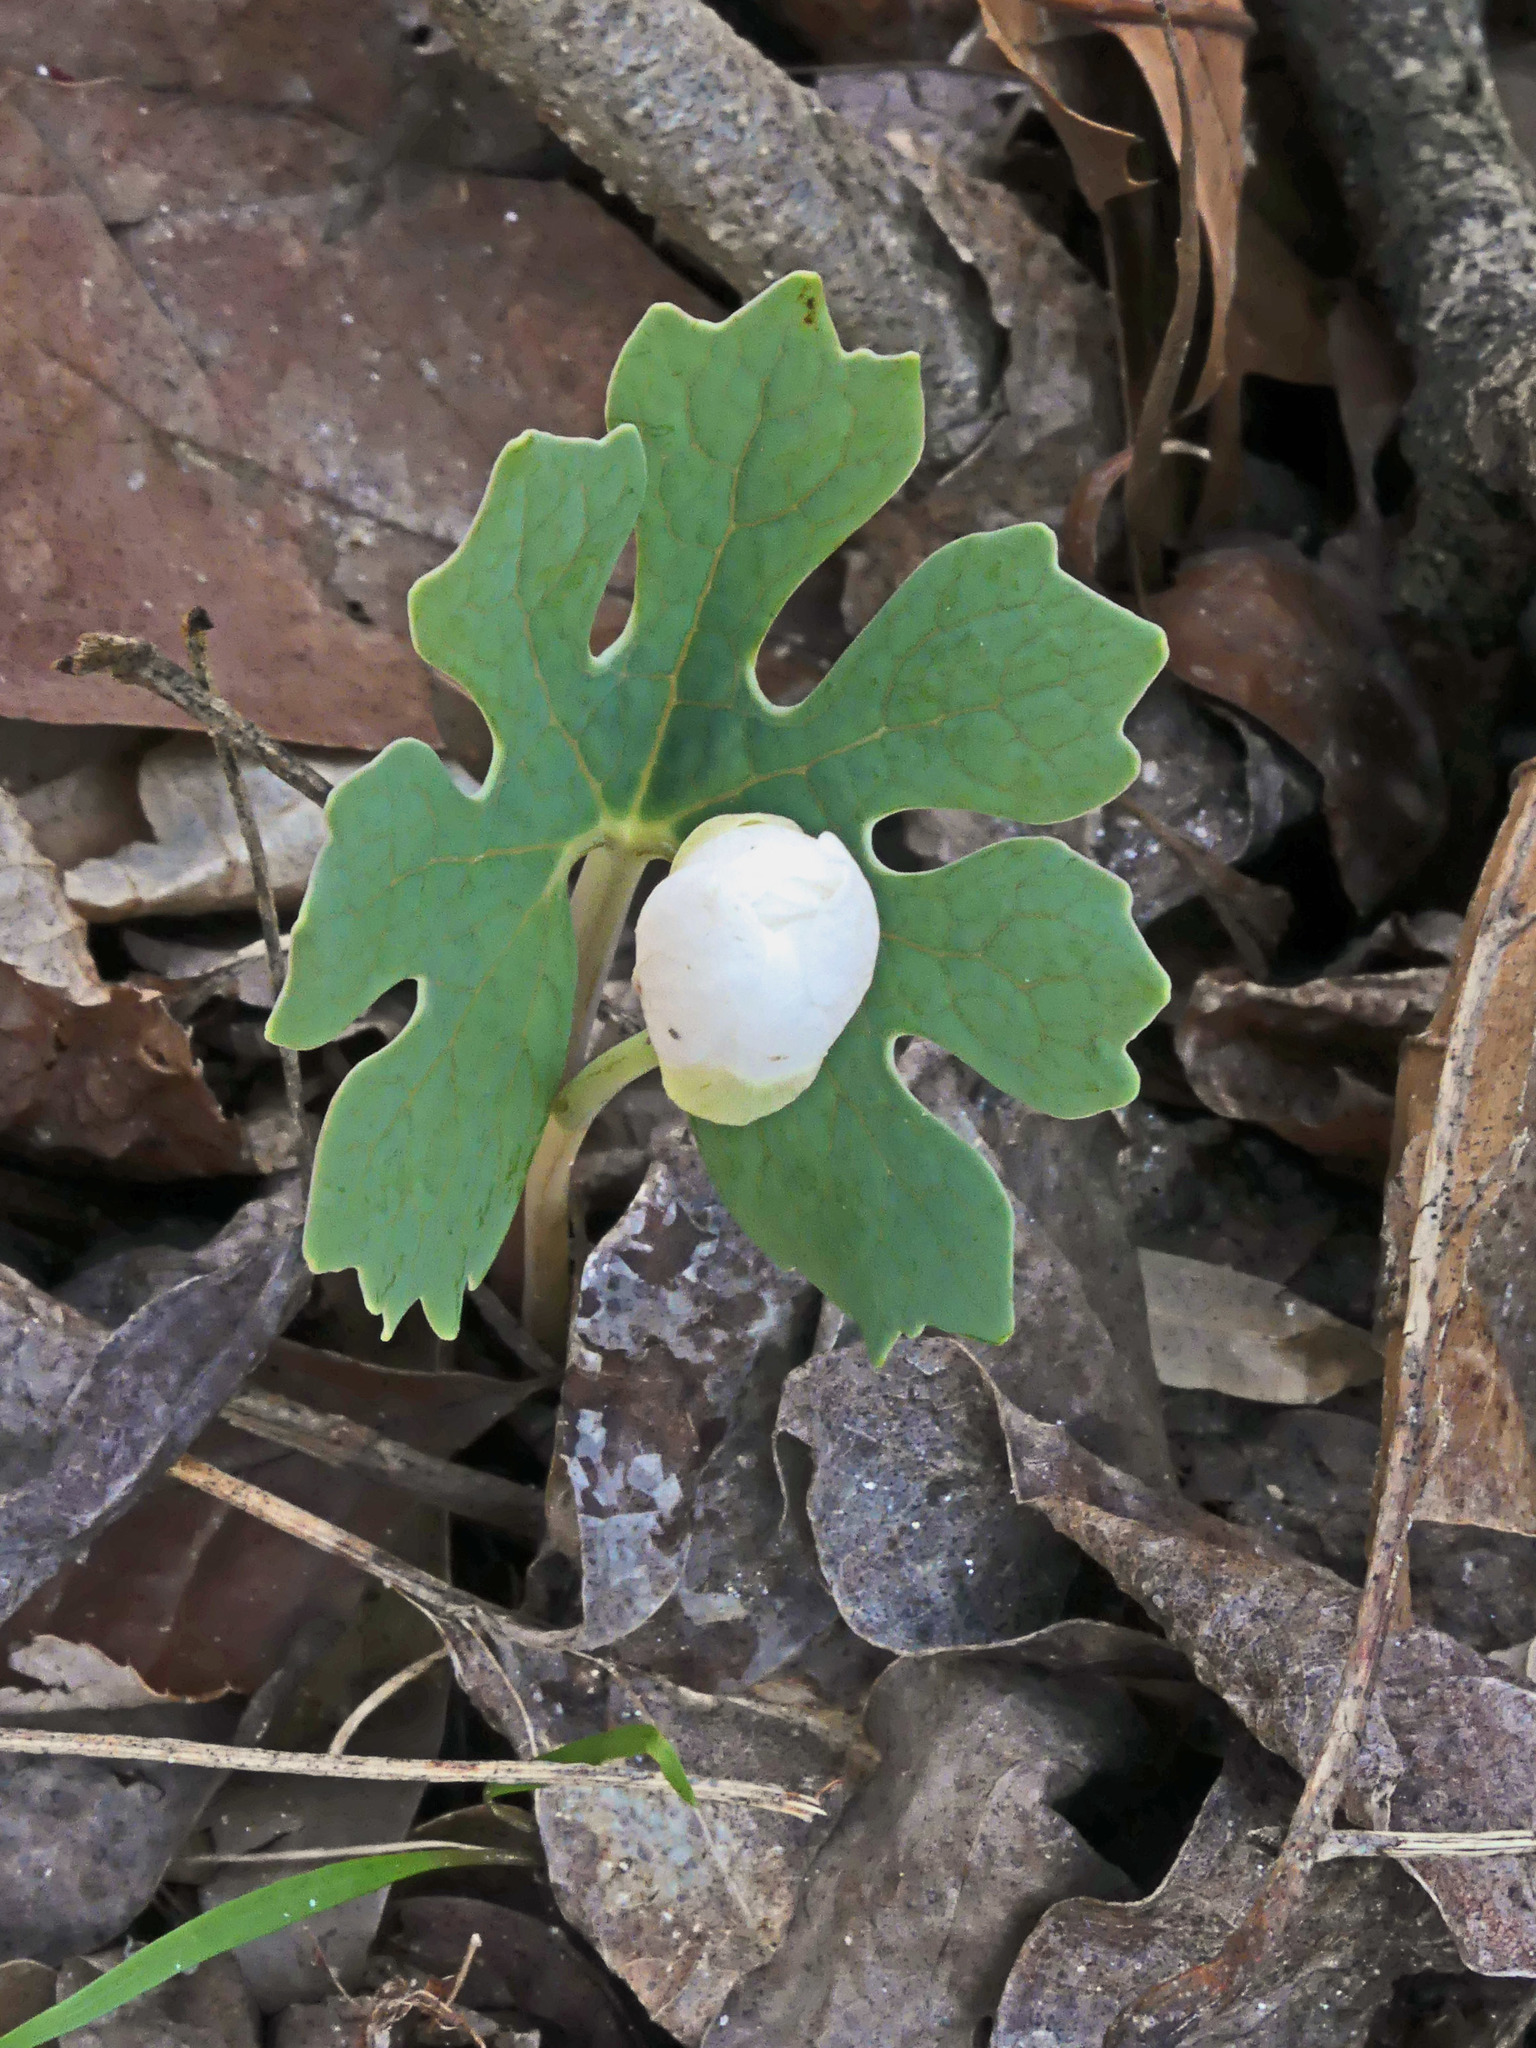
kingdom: Plantae
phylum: Tracheophyta
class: Magnoliopsida
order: Ranunculales
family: Papaveraceae
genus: Sanguinaria
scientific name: Sanguinaria canadensis
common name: Bloodroot
